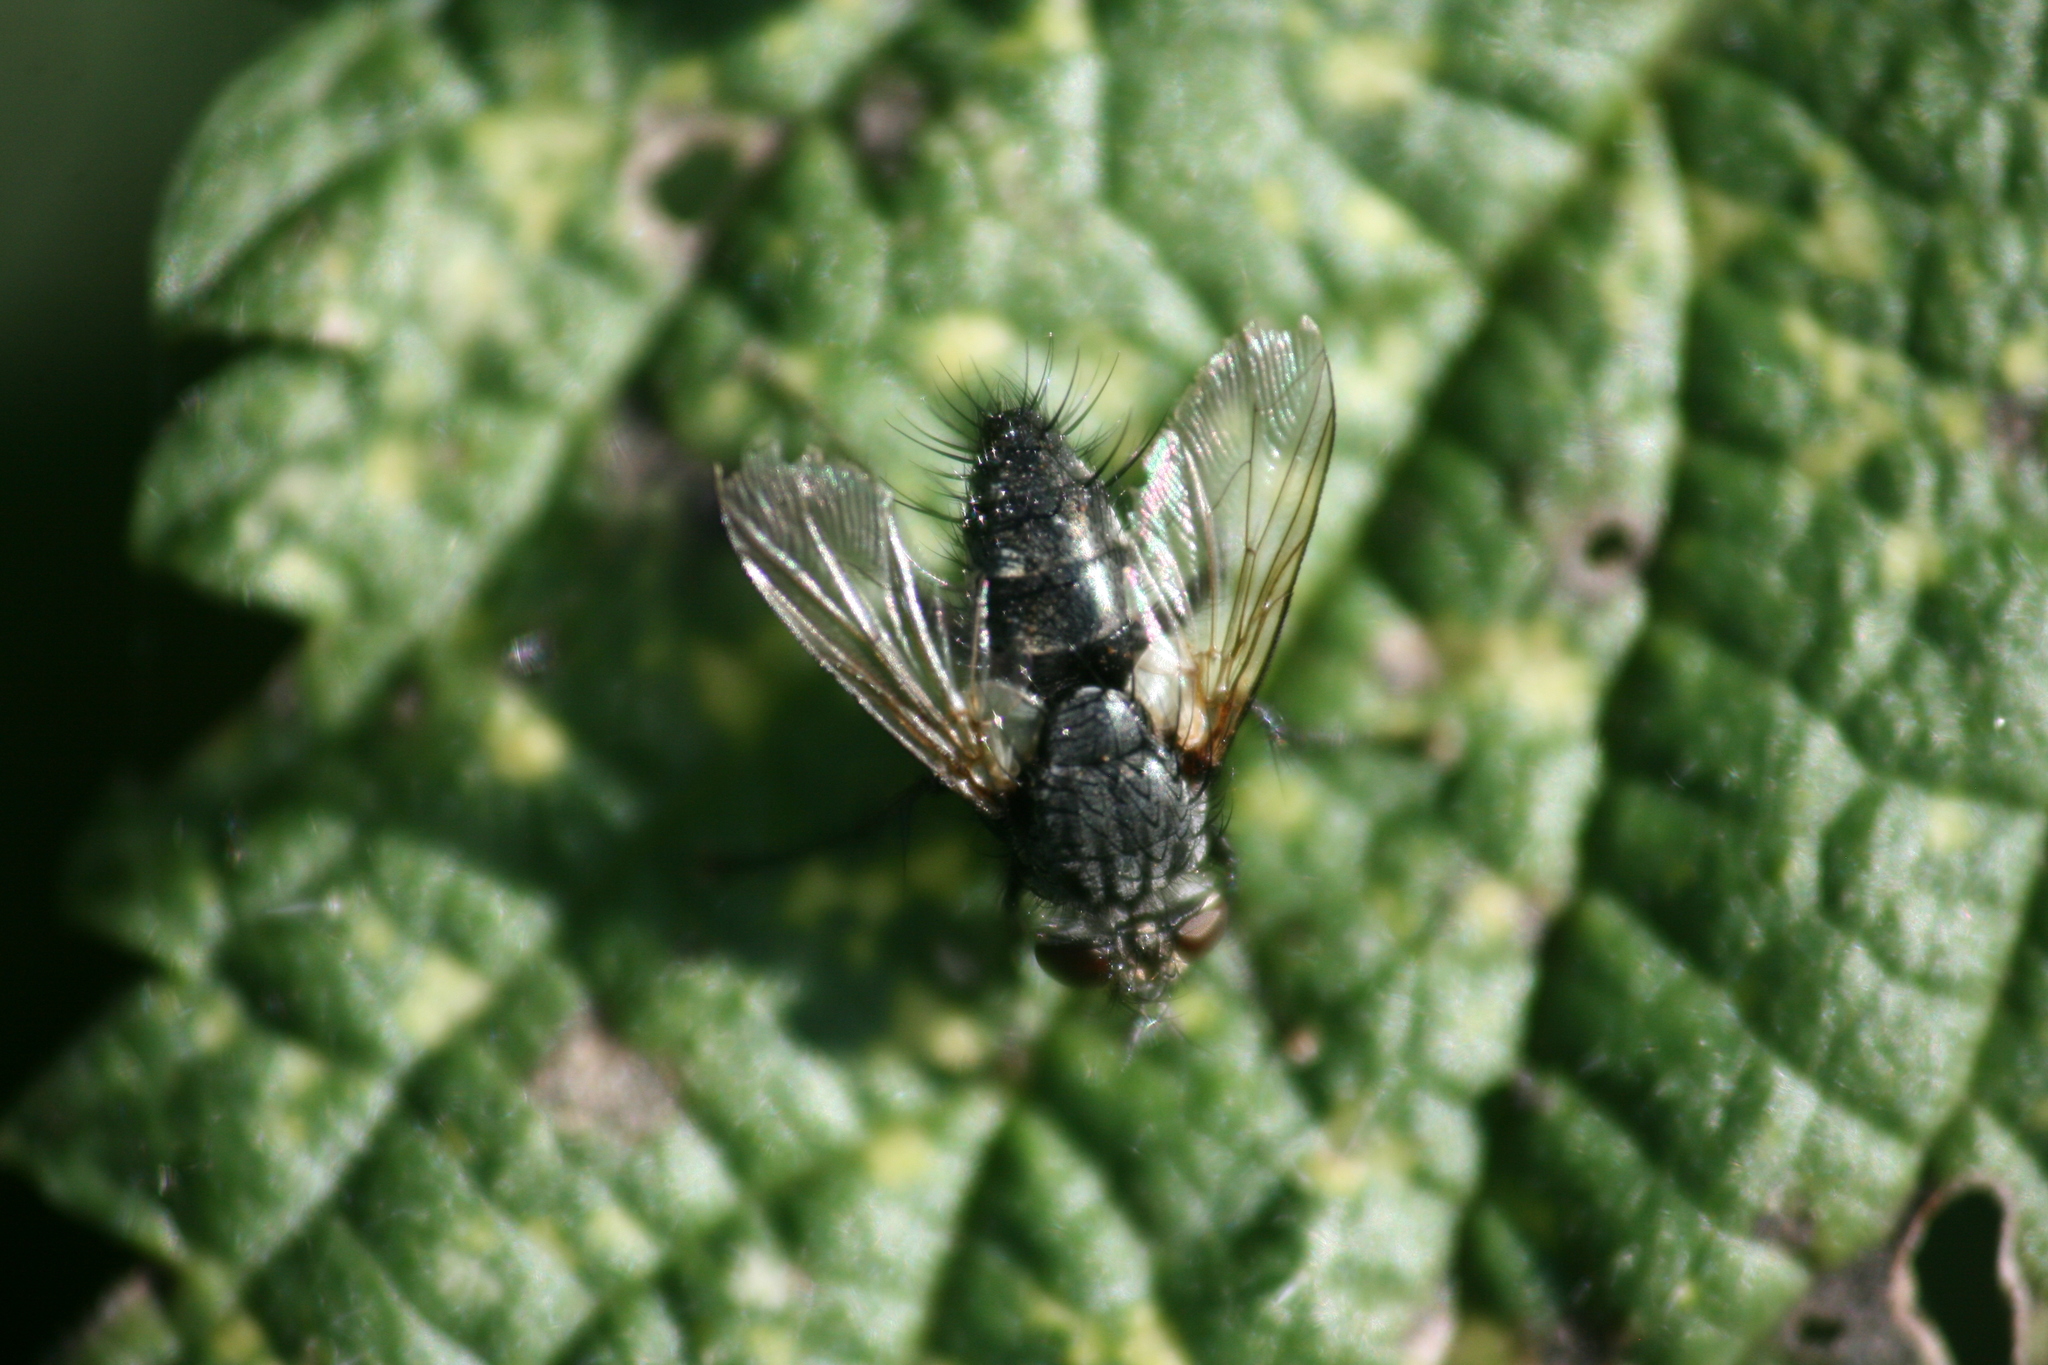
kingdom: Animalia
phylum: Arthropoda
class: Insecta
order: Diptera
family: Tachinidae
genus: Voria
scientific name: Voria ruralis
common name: Parasitic fly
